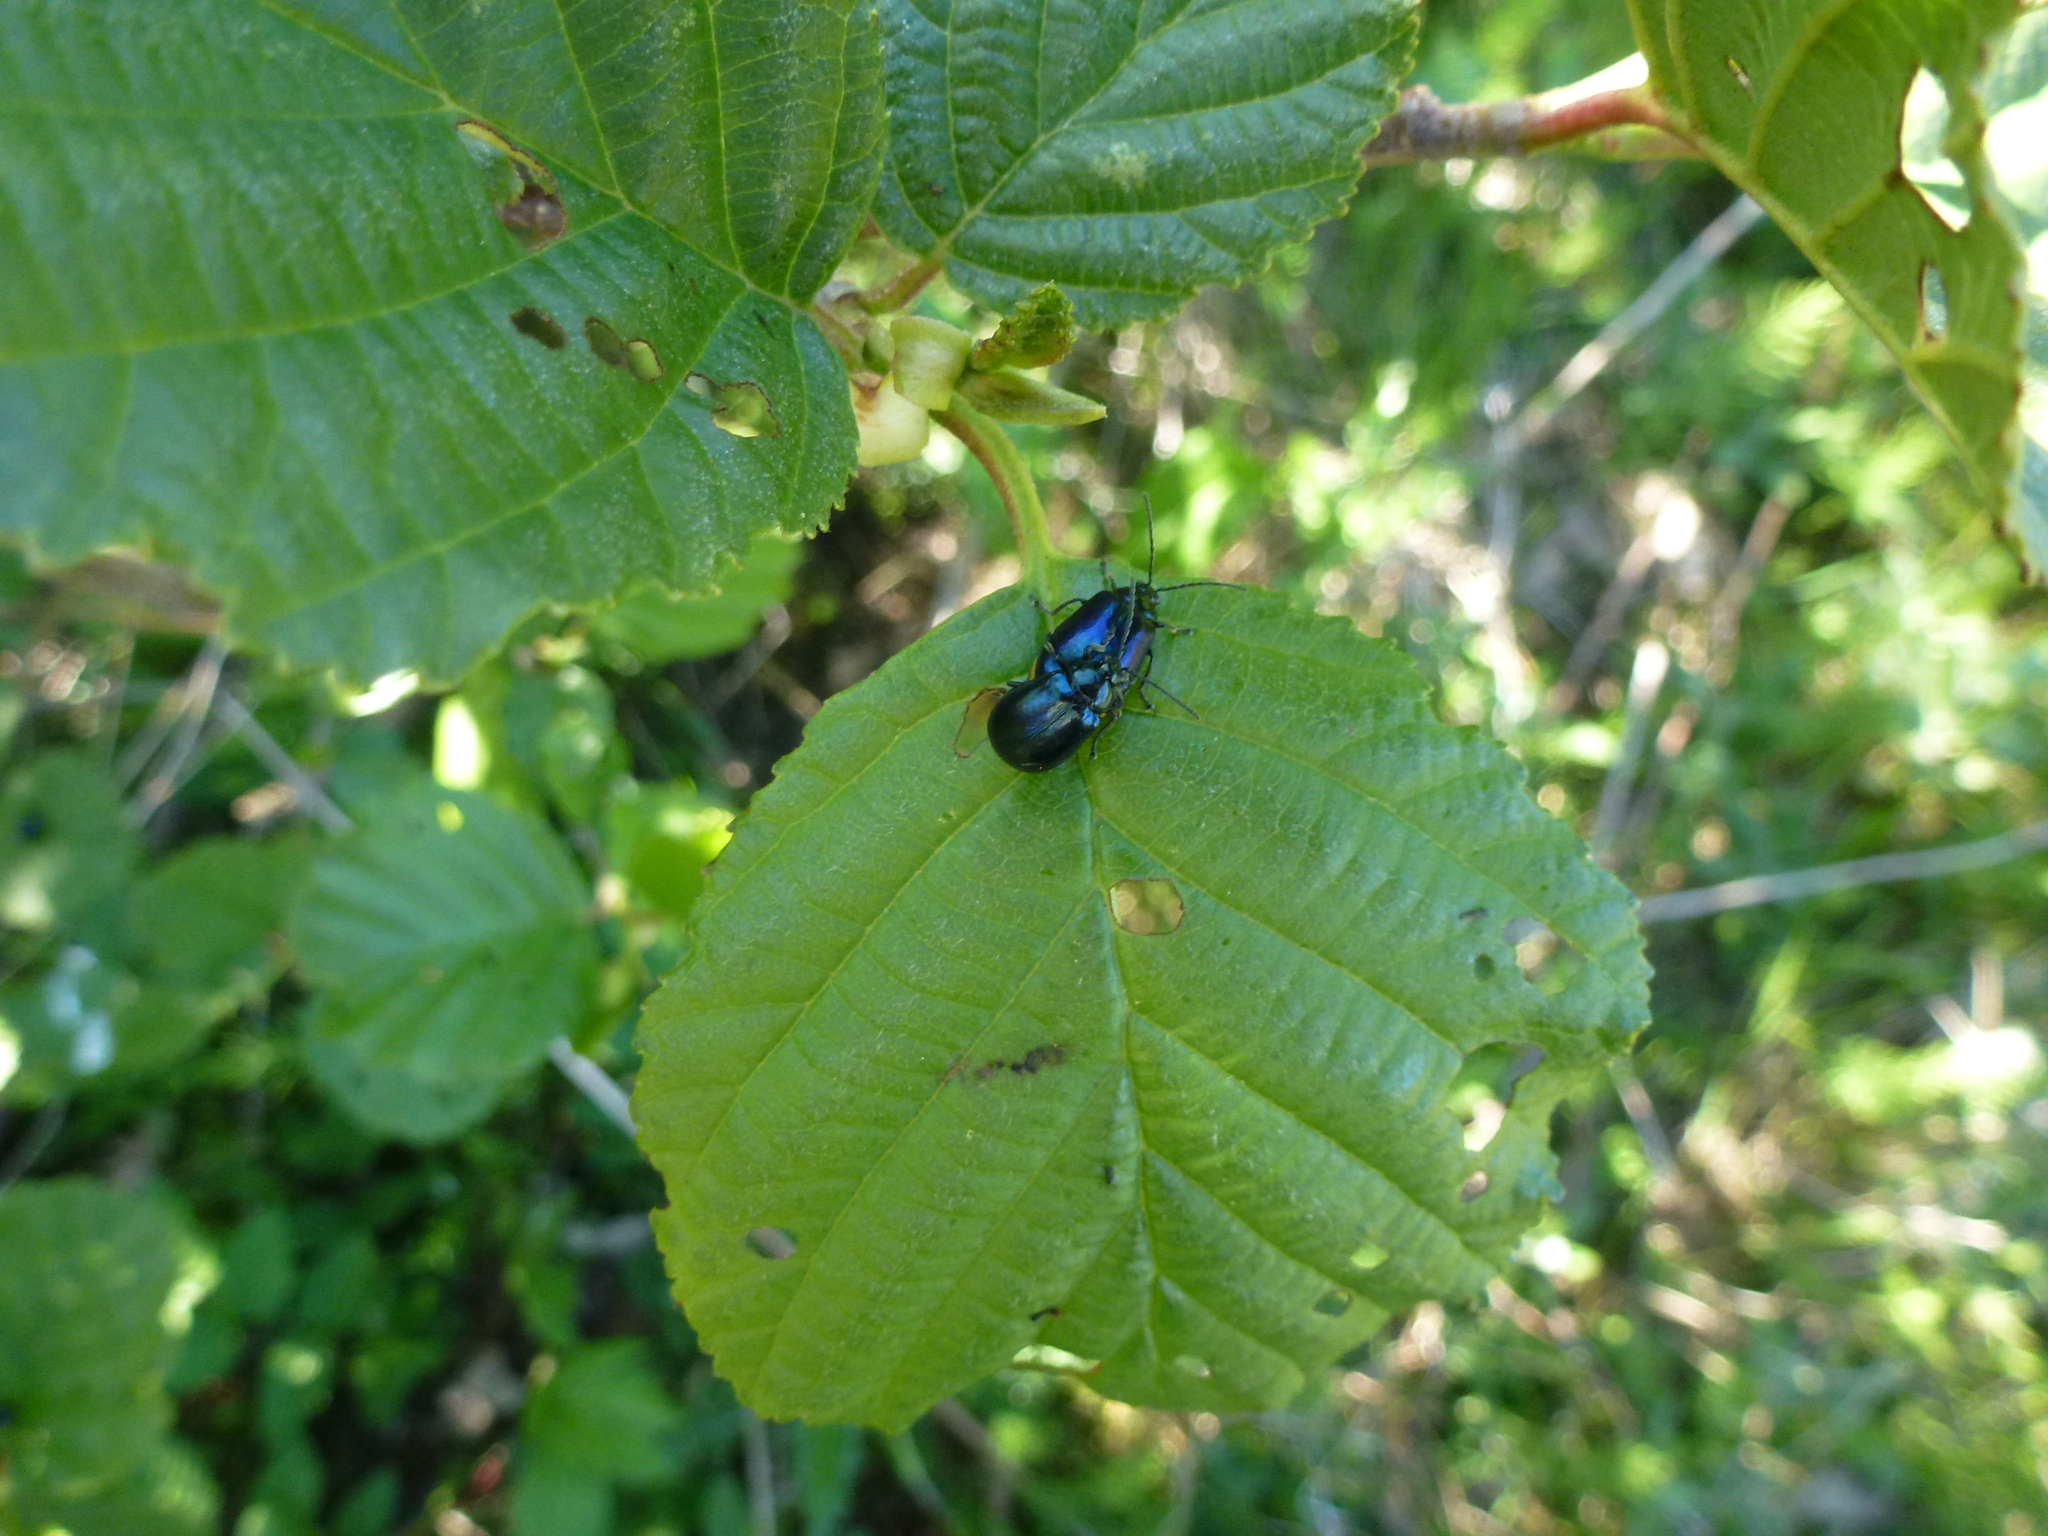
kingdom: Animalia
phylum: Arthropoda
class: Insecta
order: Coleoptera
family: Chrysomelidae
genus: Agelastica
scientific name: Agelastica alni
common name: Alder leaf beetle
